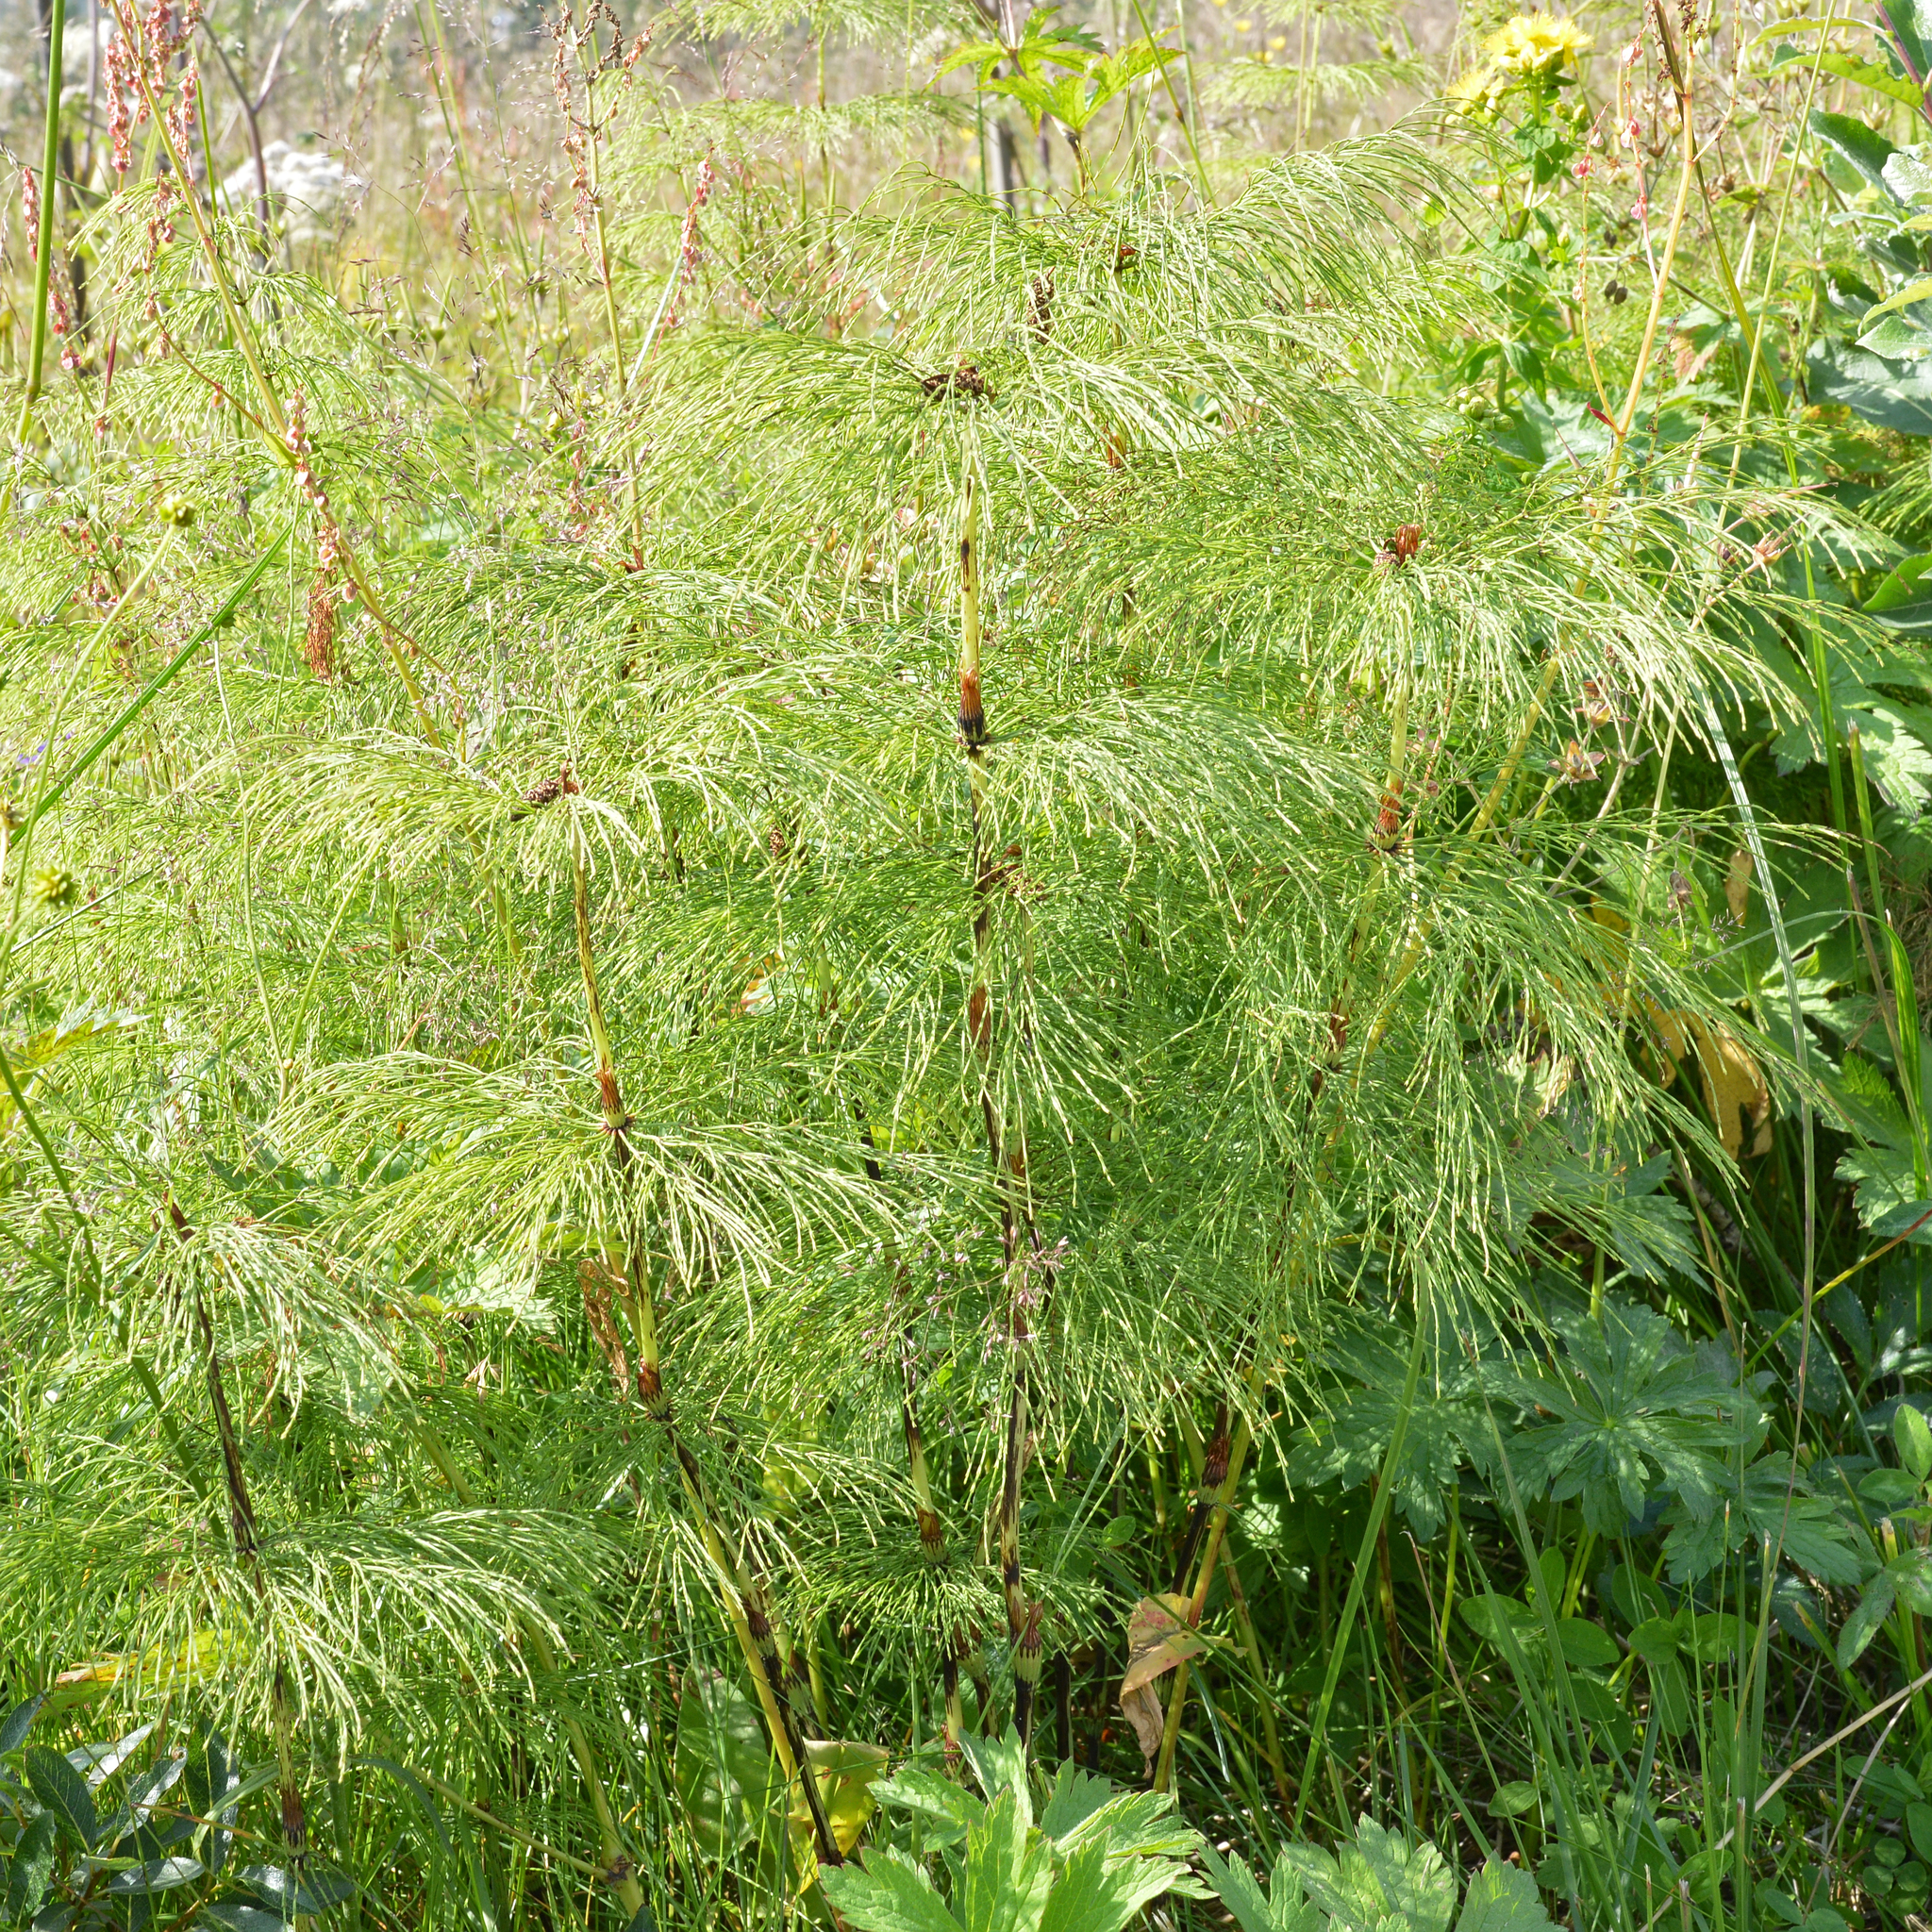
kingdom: Plantae
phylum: Tracheophyta
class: Polypodiopsida
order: Equisetales
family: Equisetaceae
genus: Equisetum
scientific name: Equisetum sylvaticum
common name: Wood horsetail
